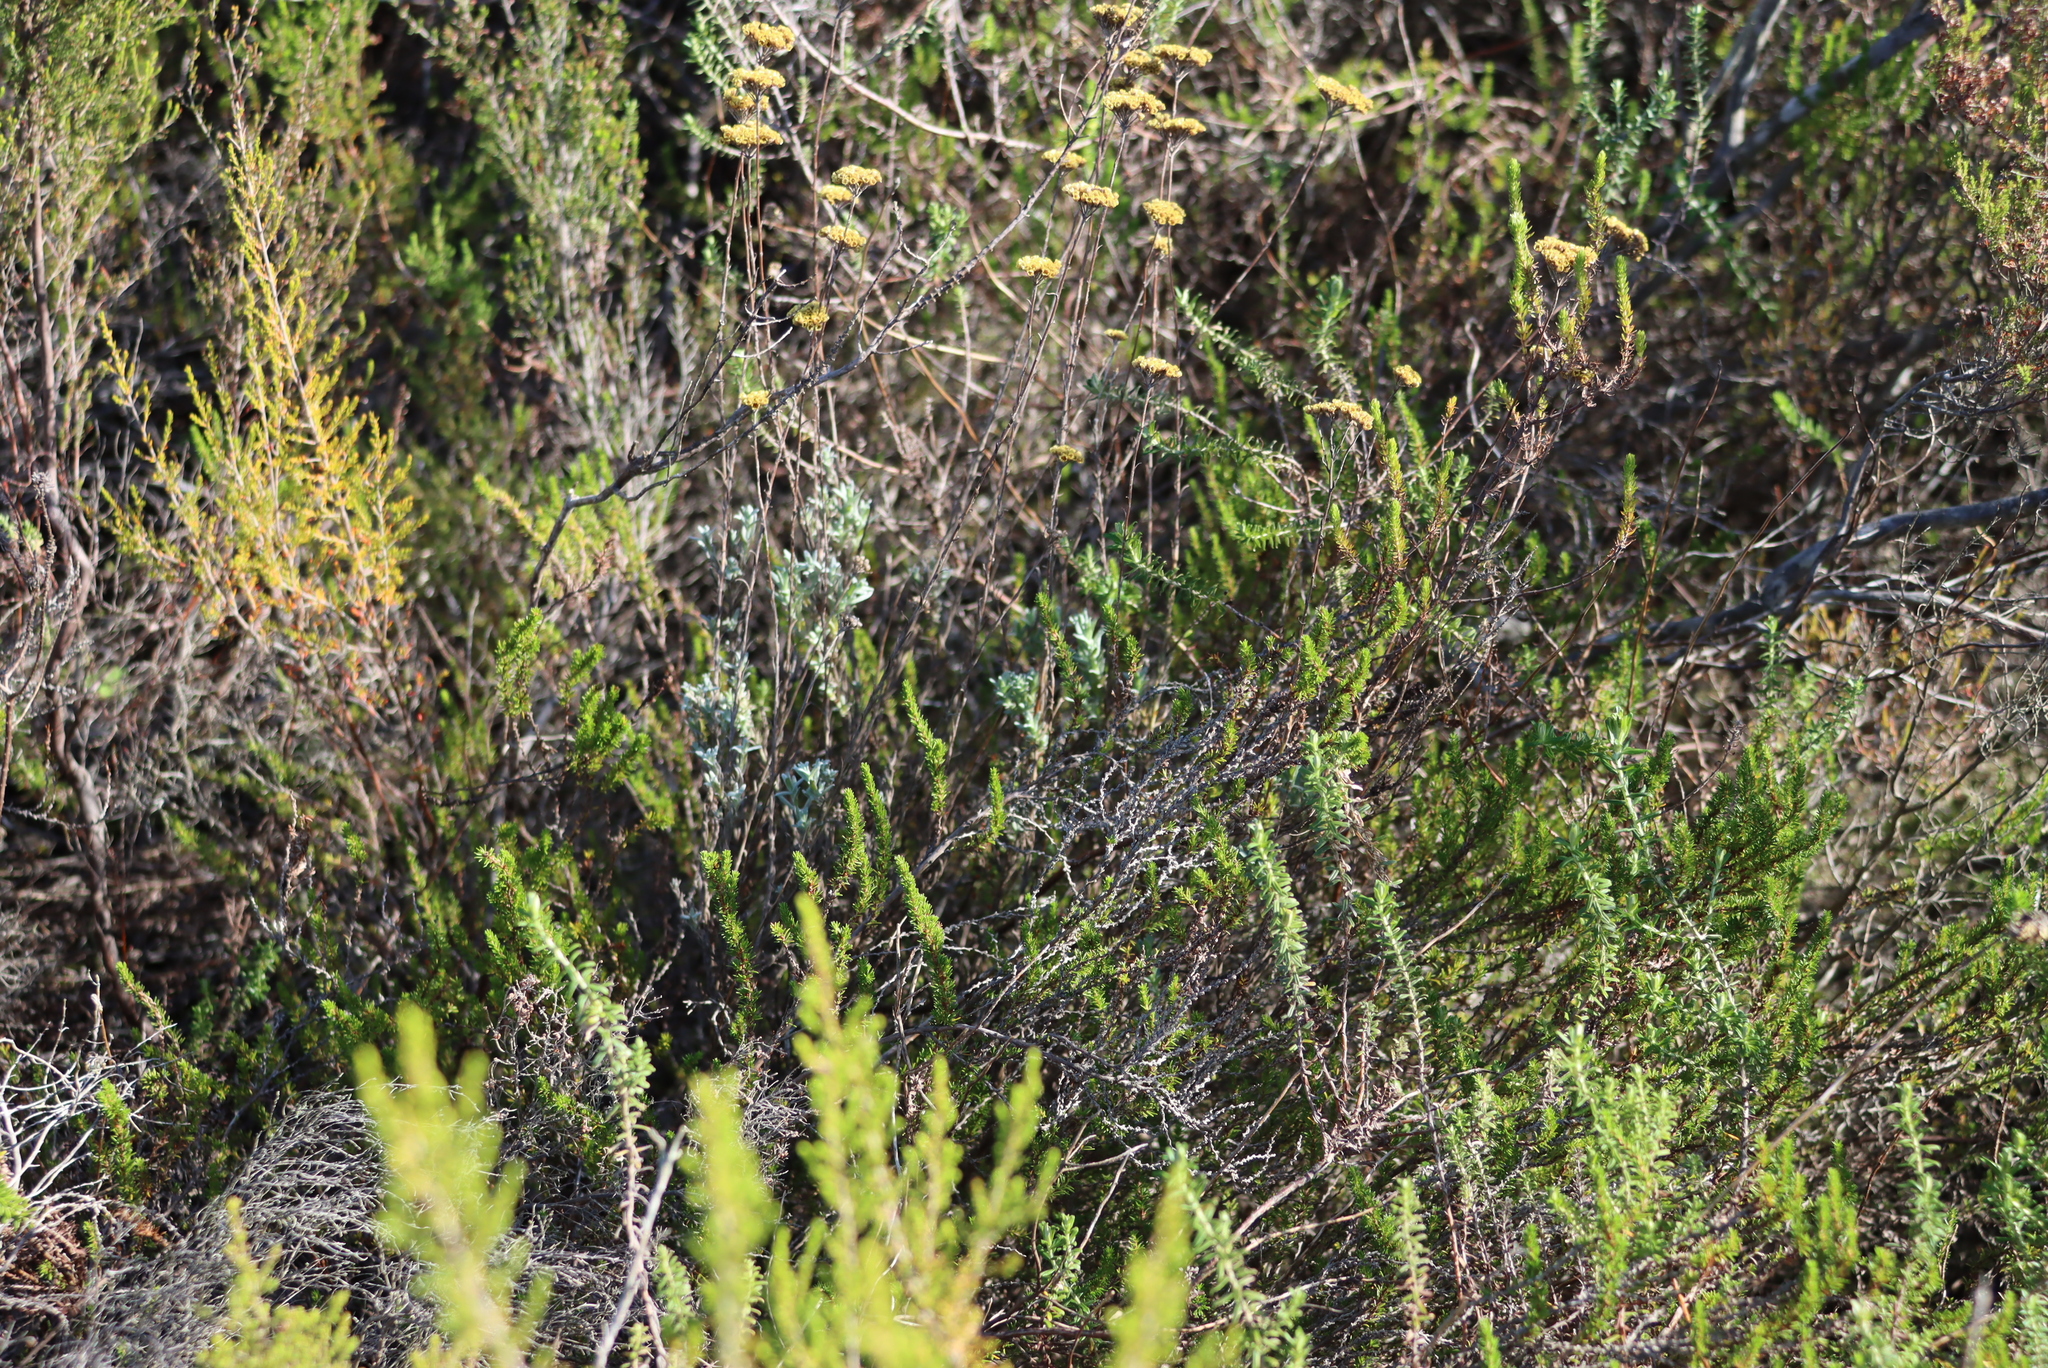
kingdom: Plantae
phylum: Tracheophyta
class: Magnoliopsida
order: Asterales
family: Asteraceae
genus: Helichrysum
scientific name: Helichrysum dasyanthum
